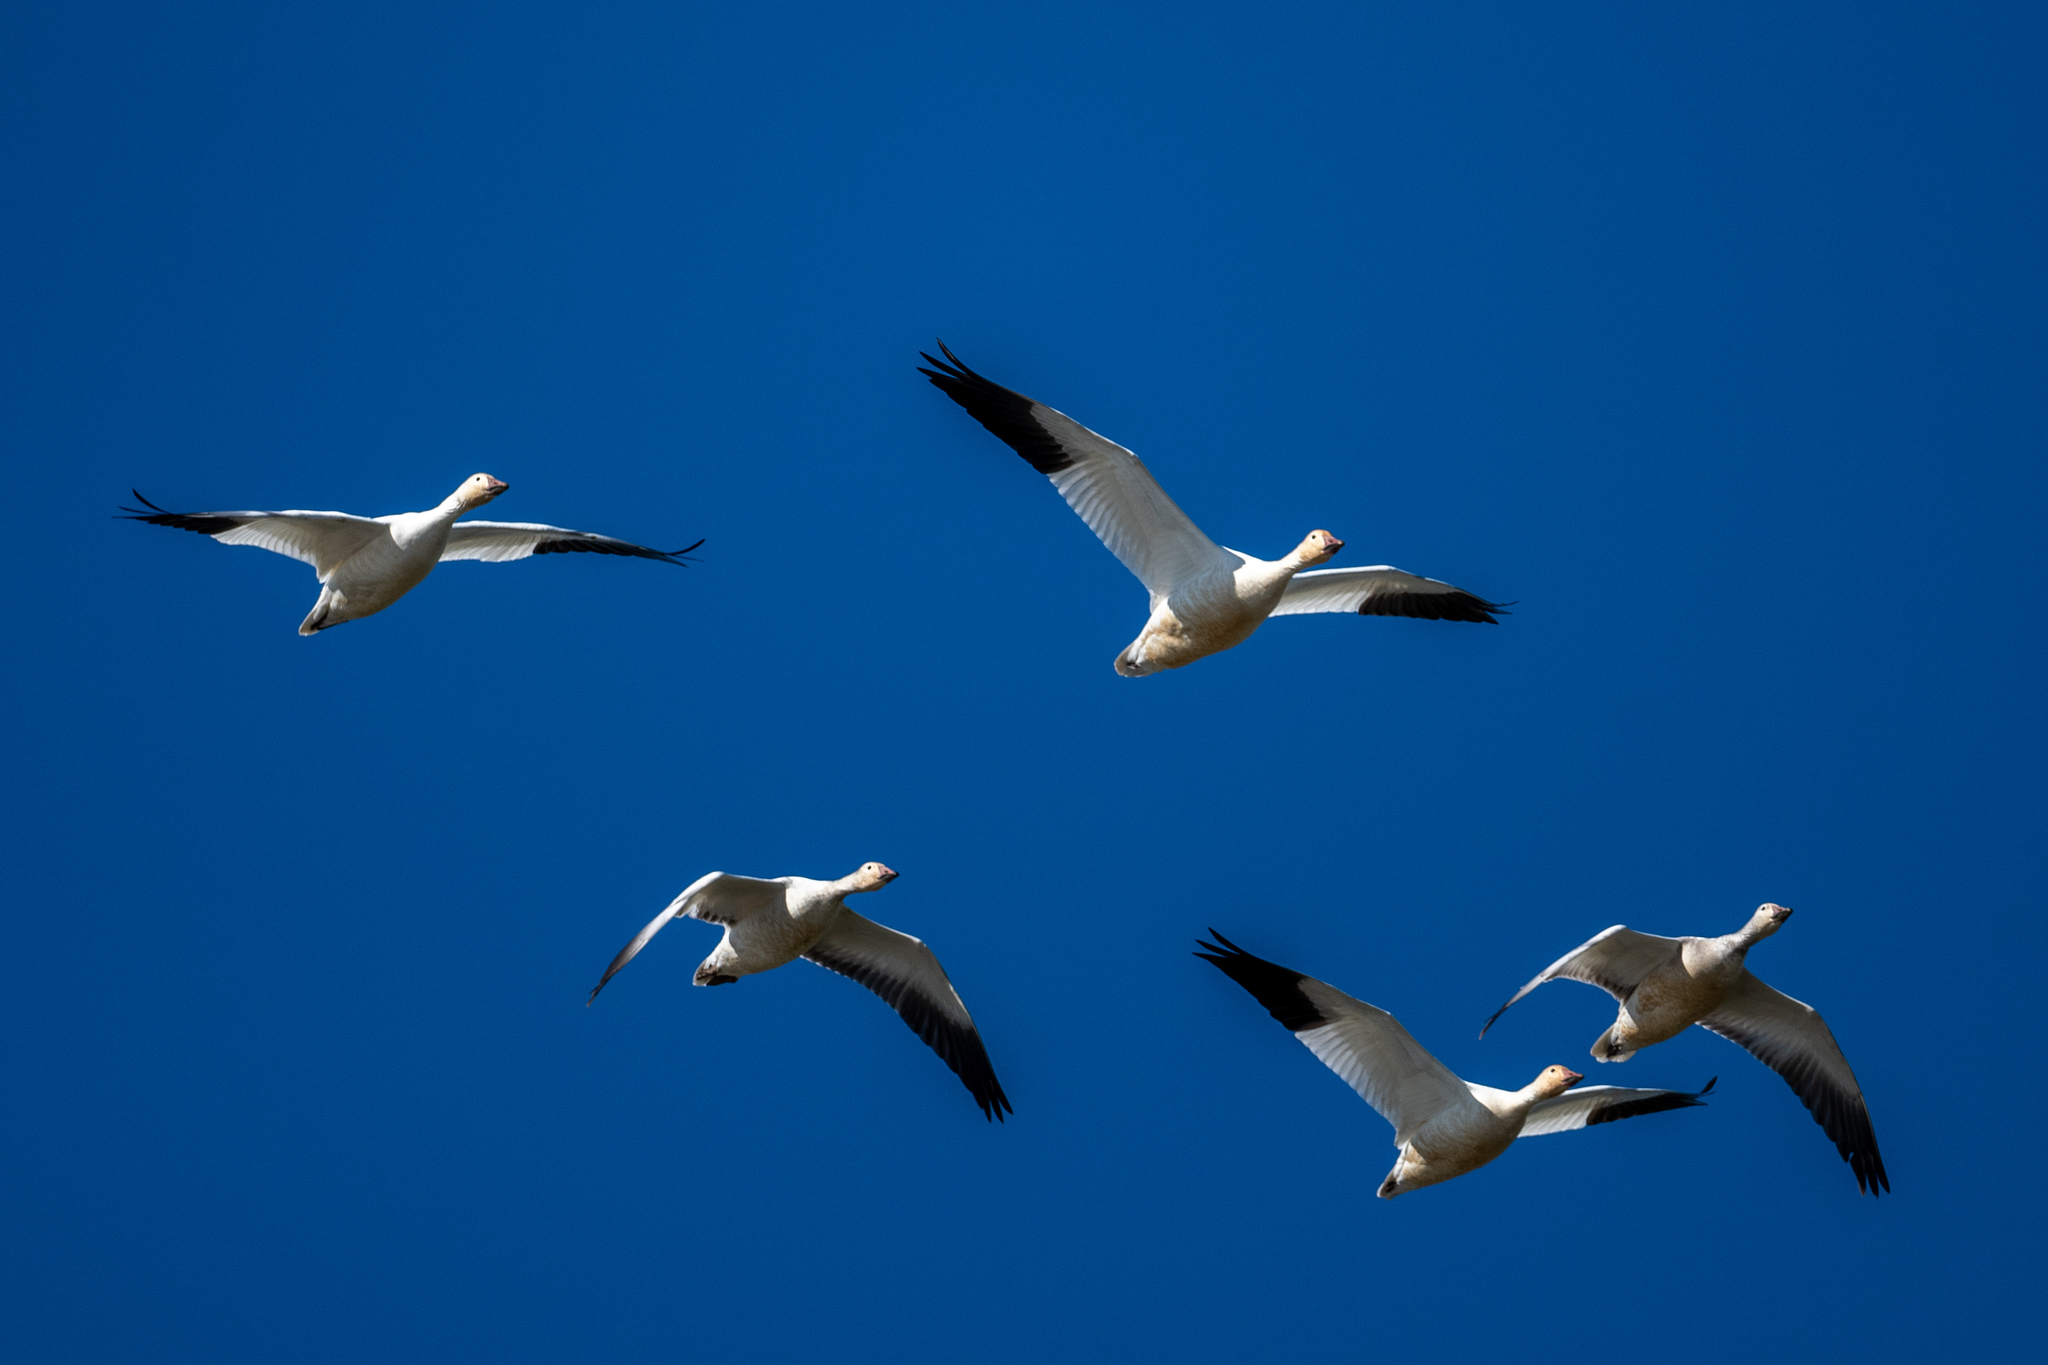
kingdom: Animalia
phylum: Chordata
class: Aves
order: Anseriformes
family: Anatidae
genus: Anser
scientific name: Anser caerulescens
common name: Snow goose
